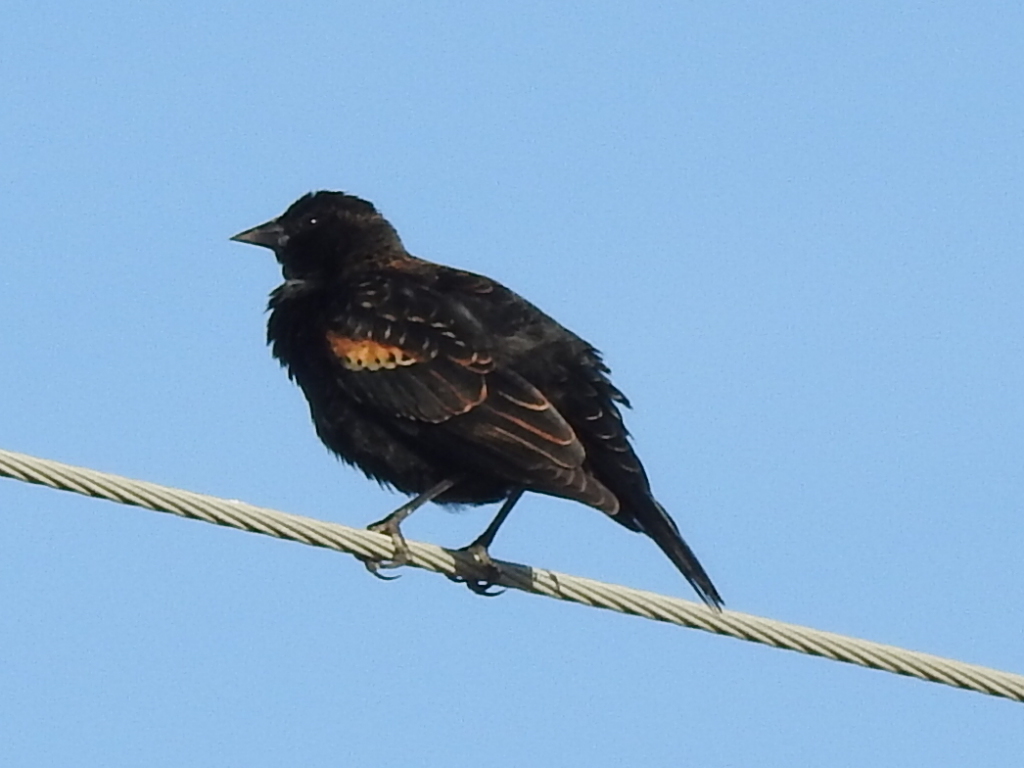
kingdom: Animalia
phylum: Chordata
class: Aves
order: Passeriformes
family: Icteridae
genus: Agelaius
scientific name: Agelaius phoeniceus
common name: Red-winged blackbird
